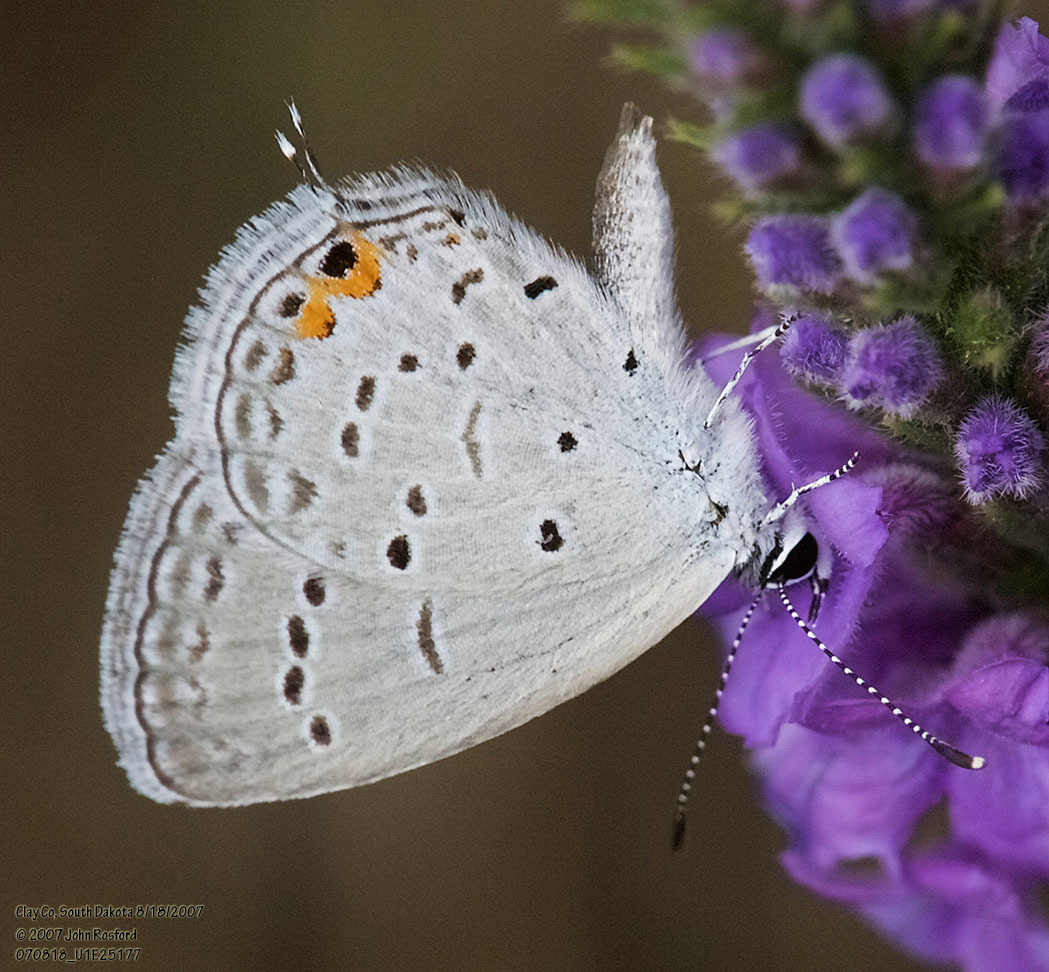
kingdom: Animalia
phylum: Arthropoda
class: Insecta
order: Lepidoptera
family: Lycaenidae
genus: Elkalyce
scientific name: Elkalyce comyntas
